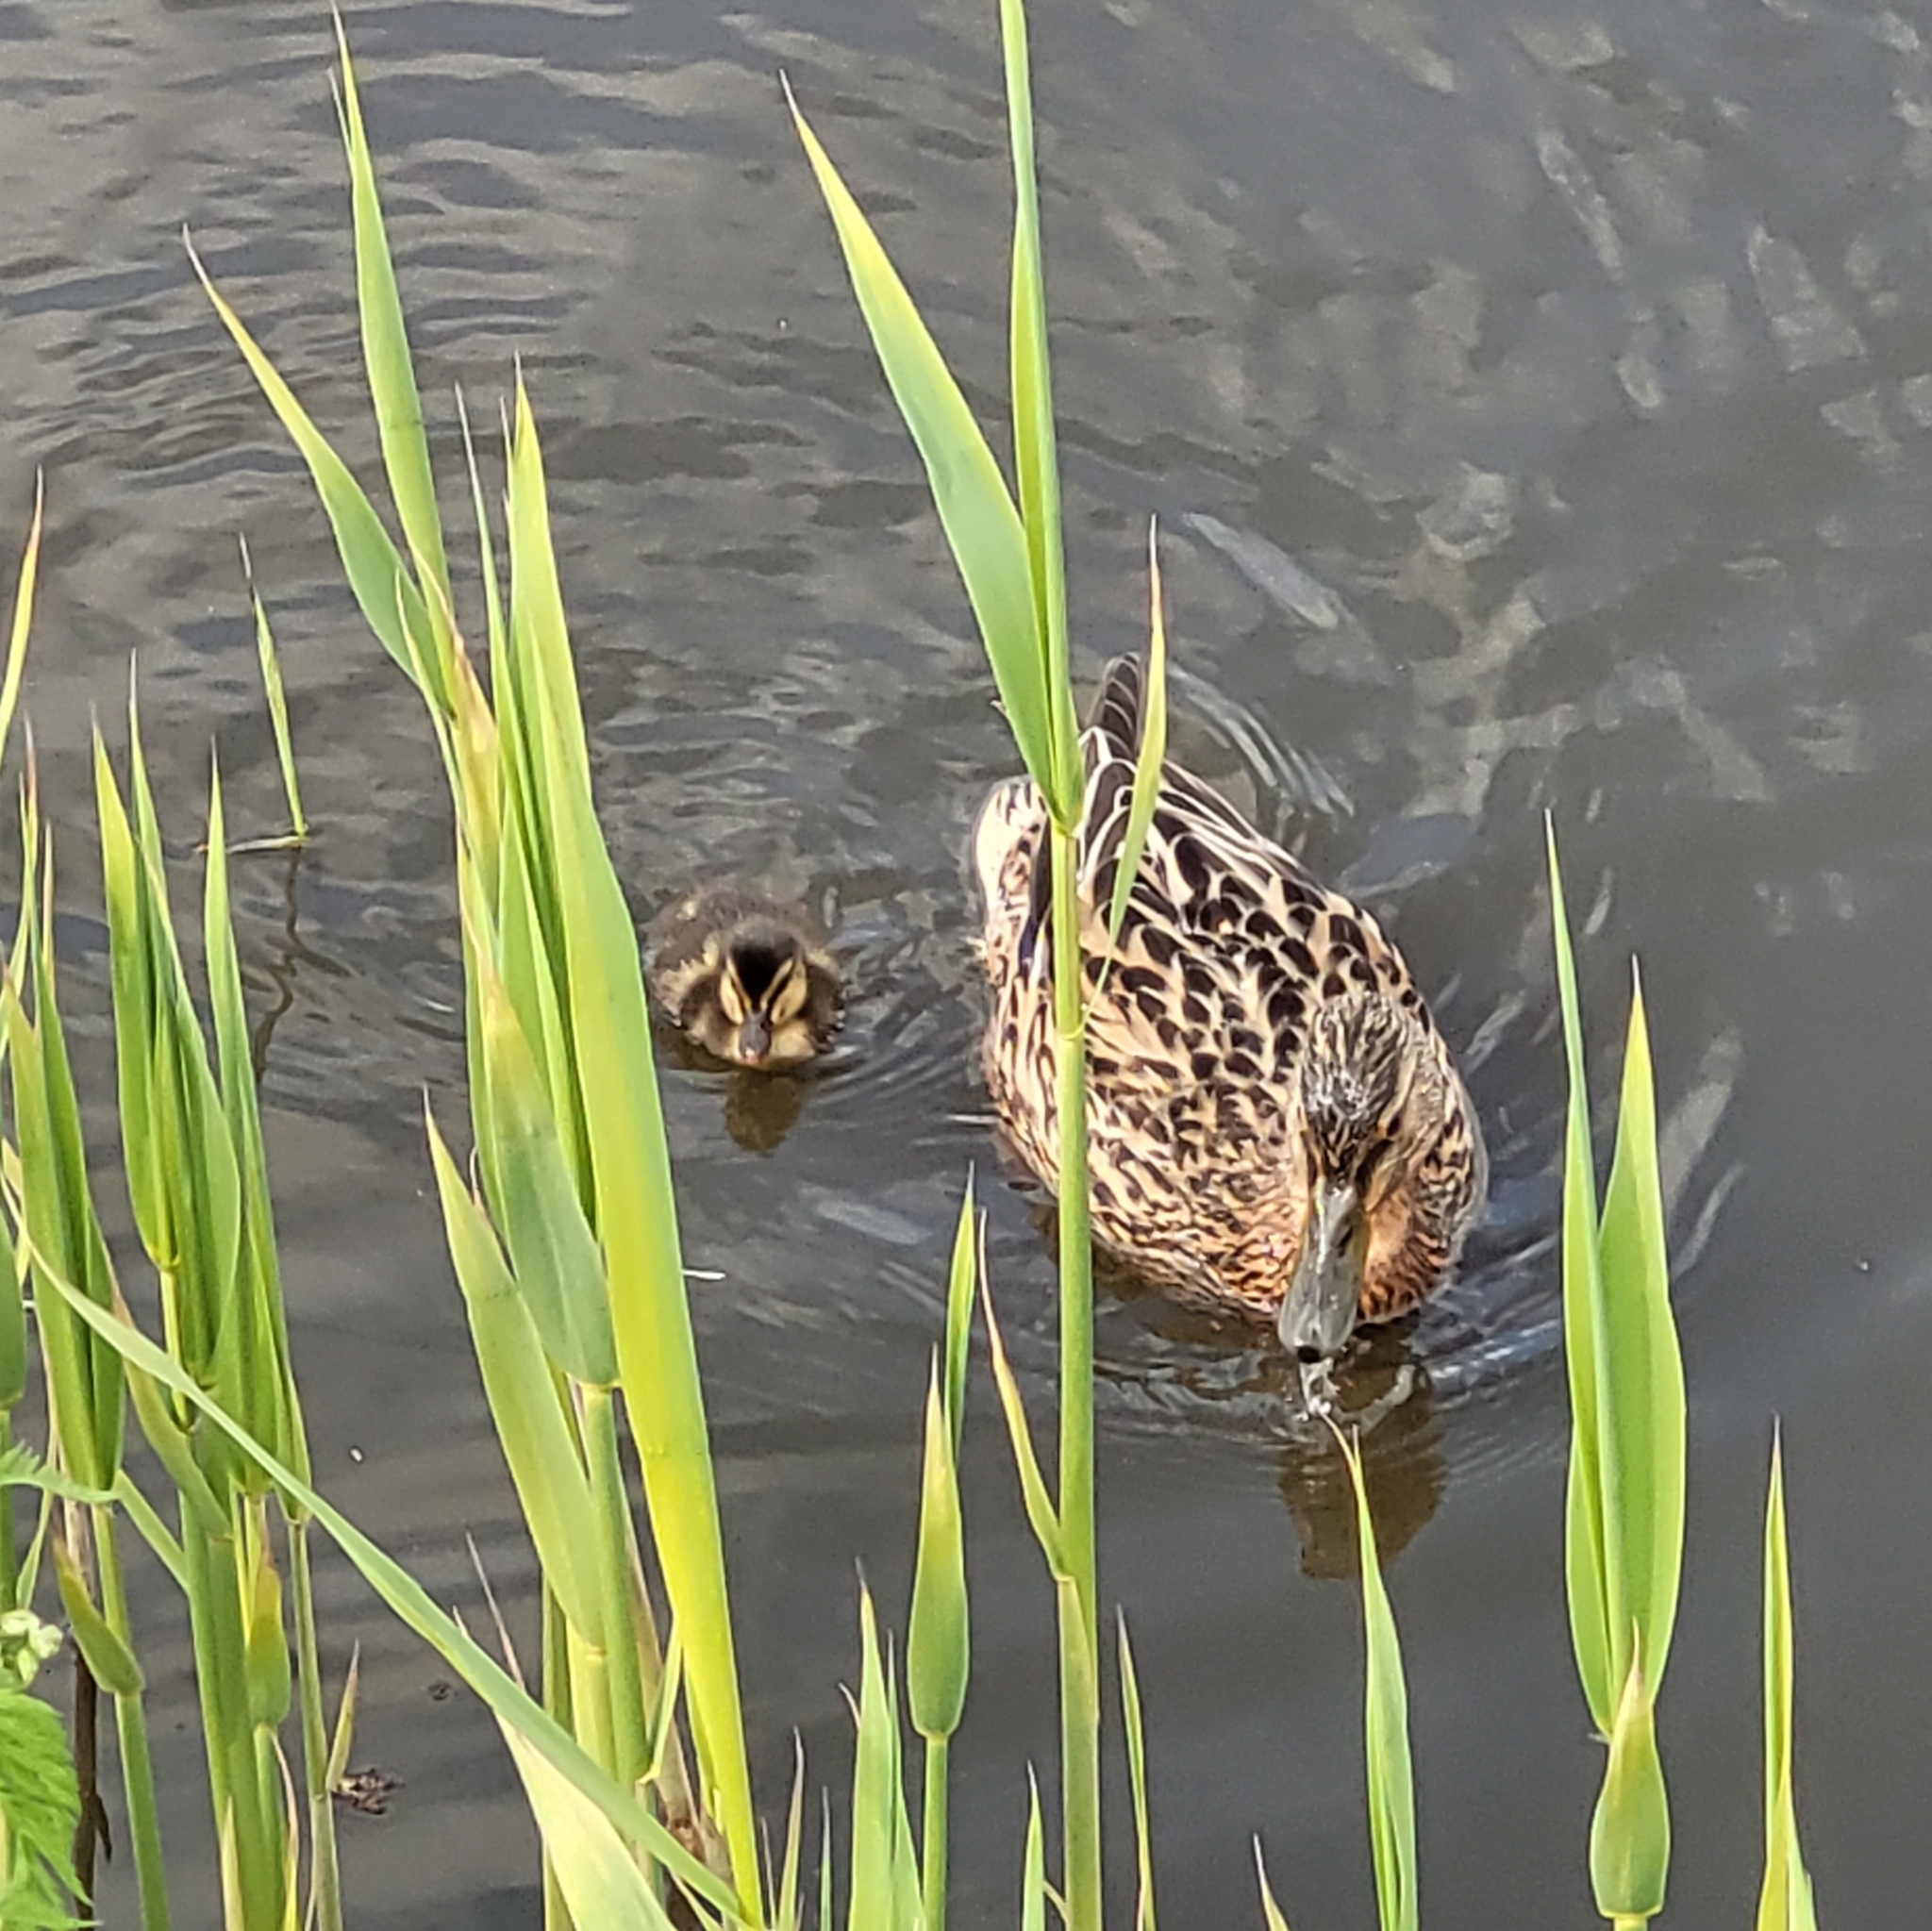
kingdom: Animalia
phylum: Chordata
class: Aves
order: Anseriformes
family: Anatidae
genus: Anas
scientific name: Anas platyrhynchos
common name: Mallard
